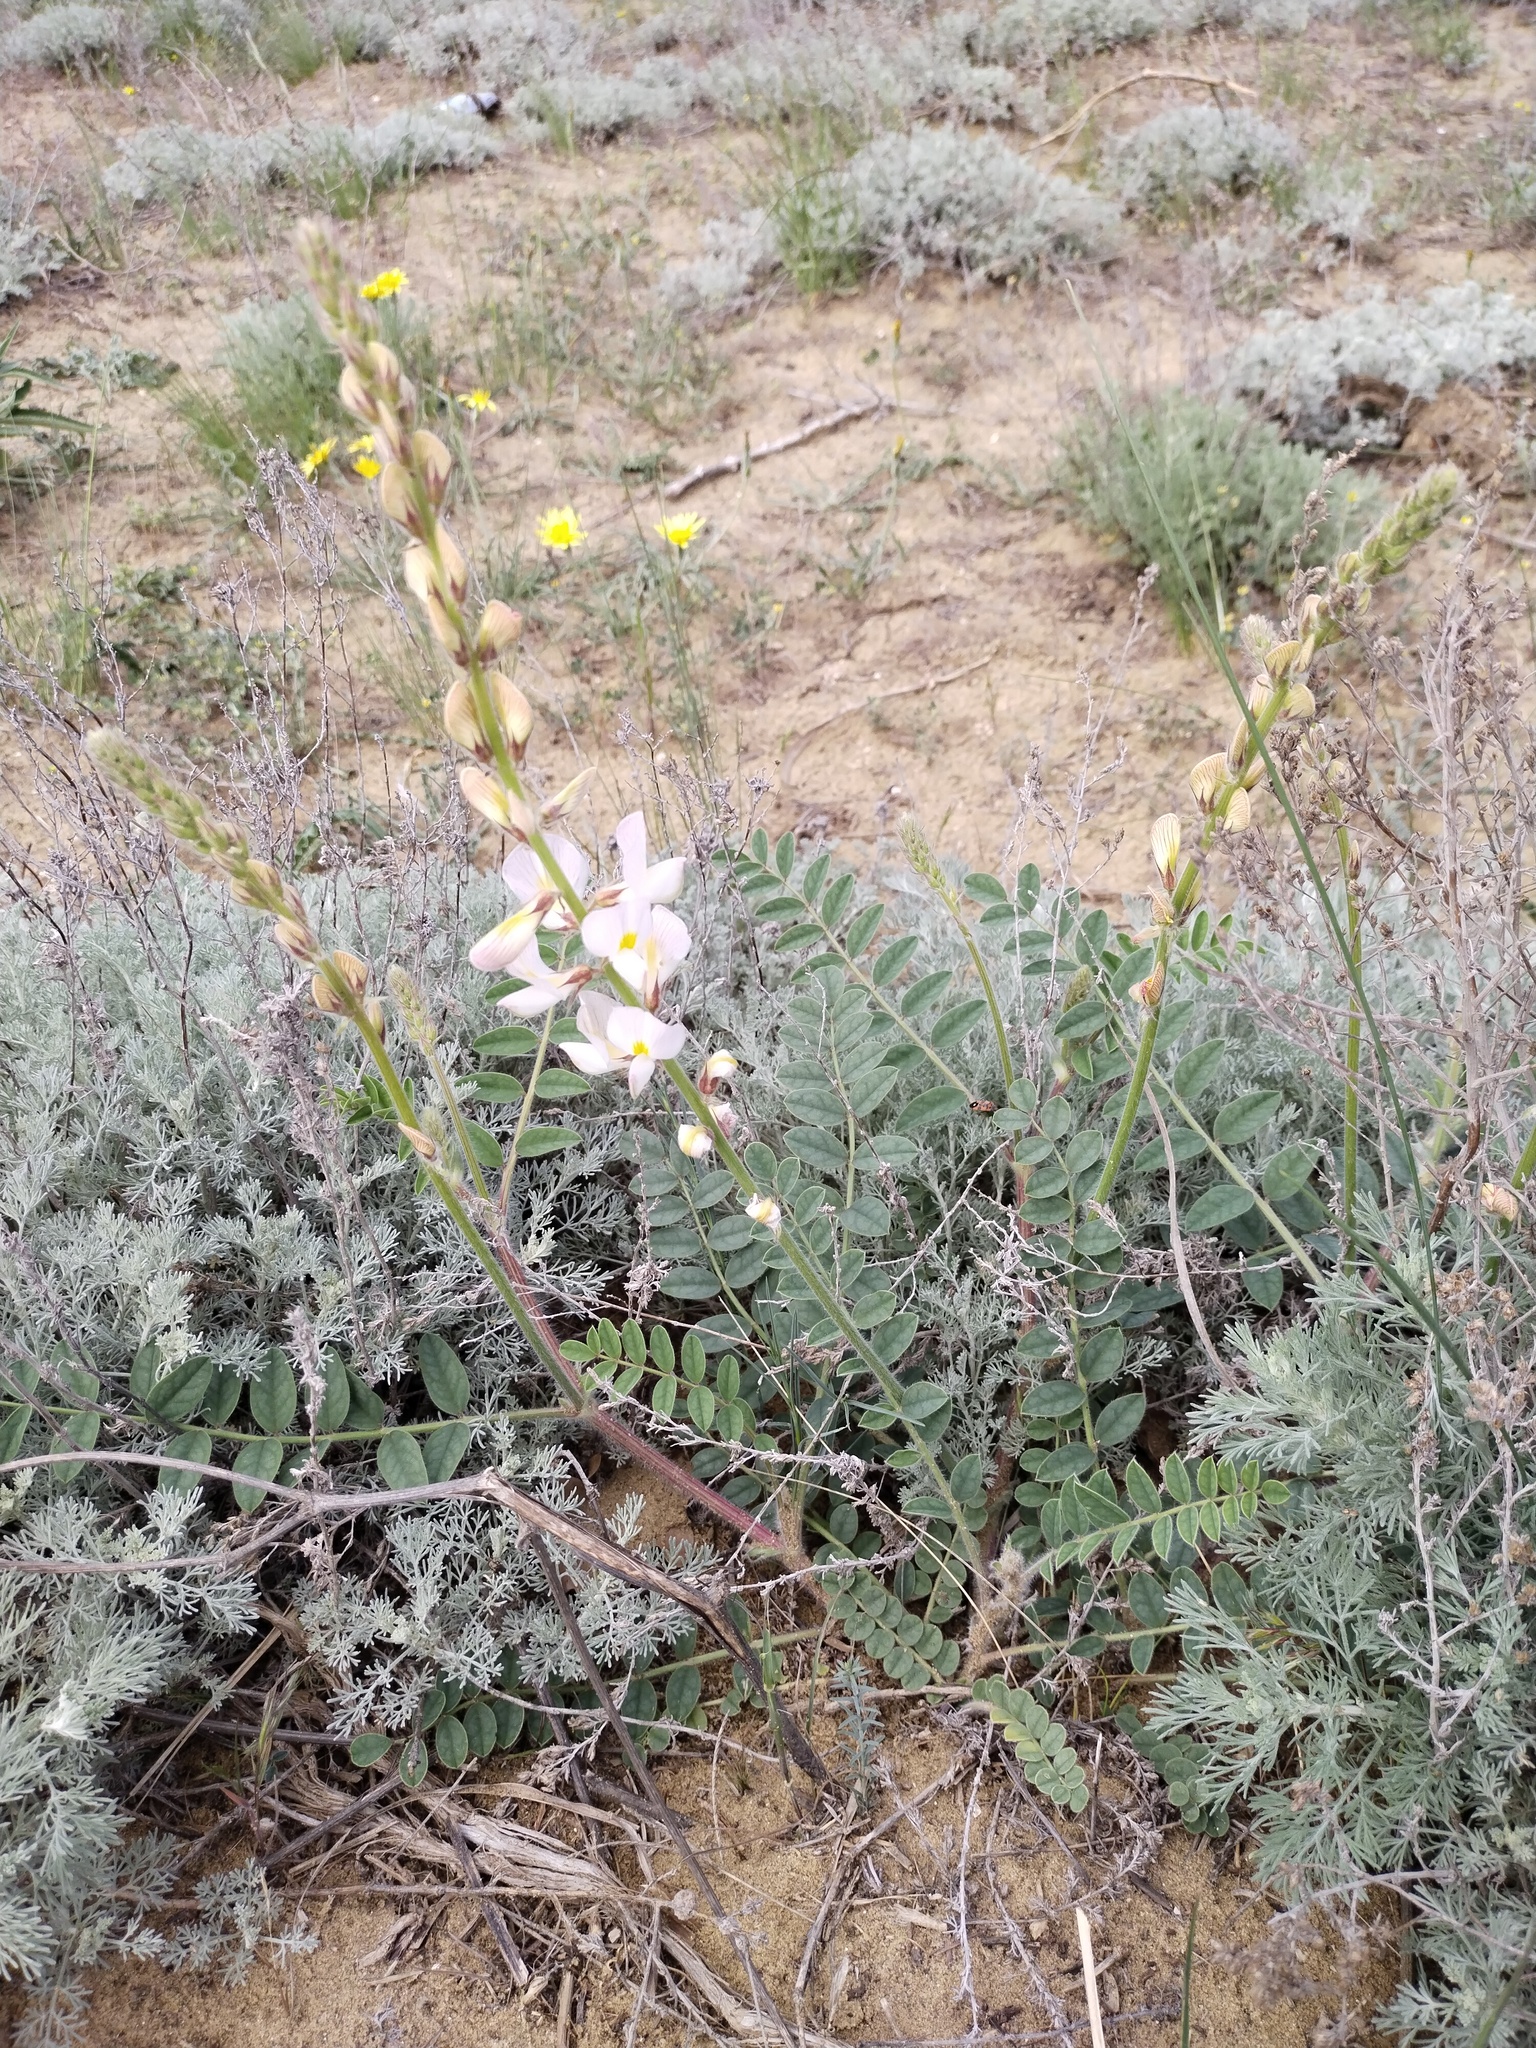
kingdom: Plantae
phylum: Tracheophyta
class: Magnoliopsida
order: Fabales
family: Fabaceae
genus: Onobrychis
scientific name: Onobrychis majorovii
